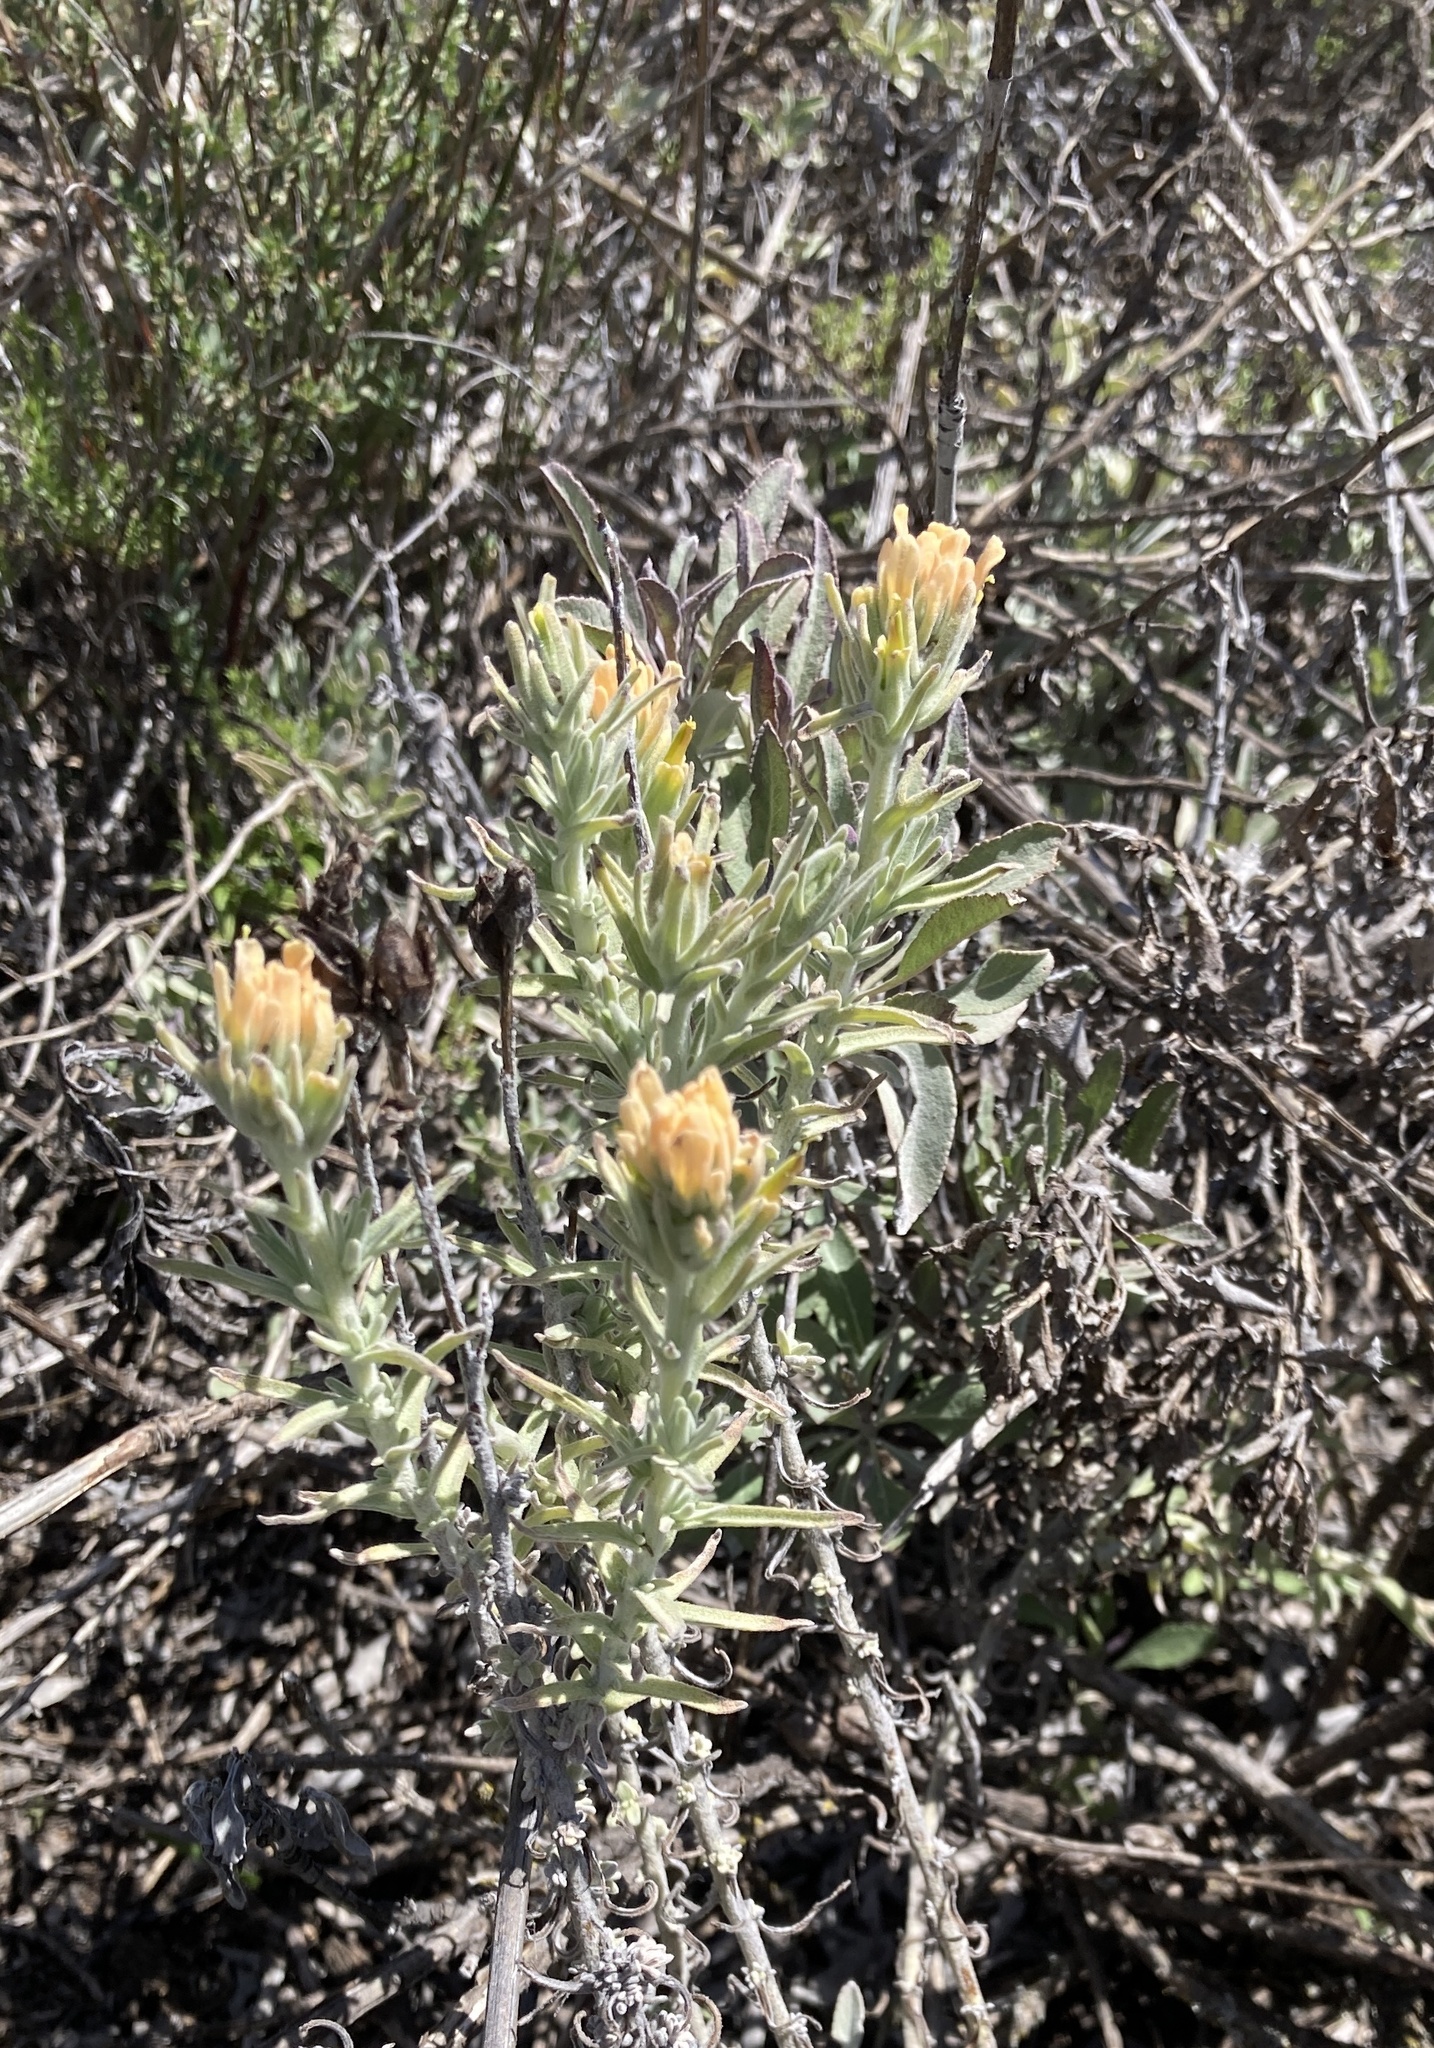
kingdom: Plantae
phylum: Tracheophyta
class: Magnoliopsida
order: Lamiales
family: Orobanchaceae
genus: Castilleja
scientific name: Castilleja foliolosa
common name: Woolly indian paintbrush
